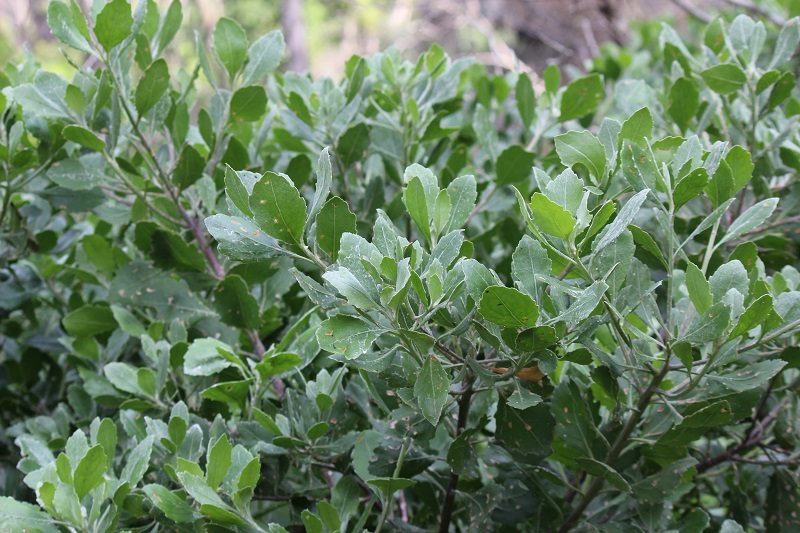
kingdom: Plantae
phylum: Tracheophyta
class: Magnoliopsida
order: Asterales
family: Asteraceae
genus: Osteospermum
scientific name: Osteospermum moniliferum
